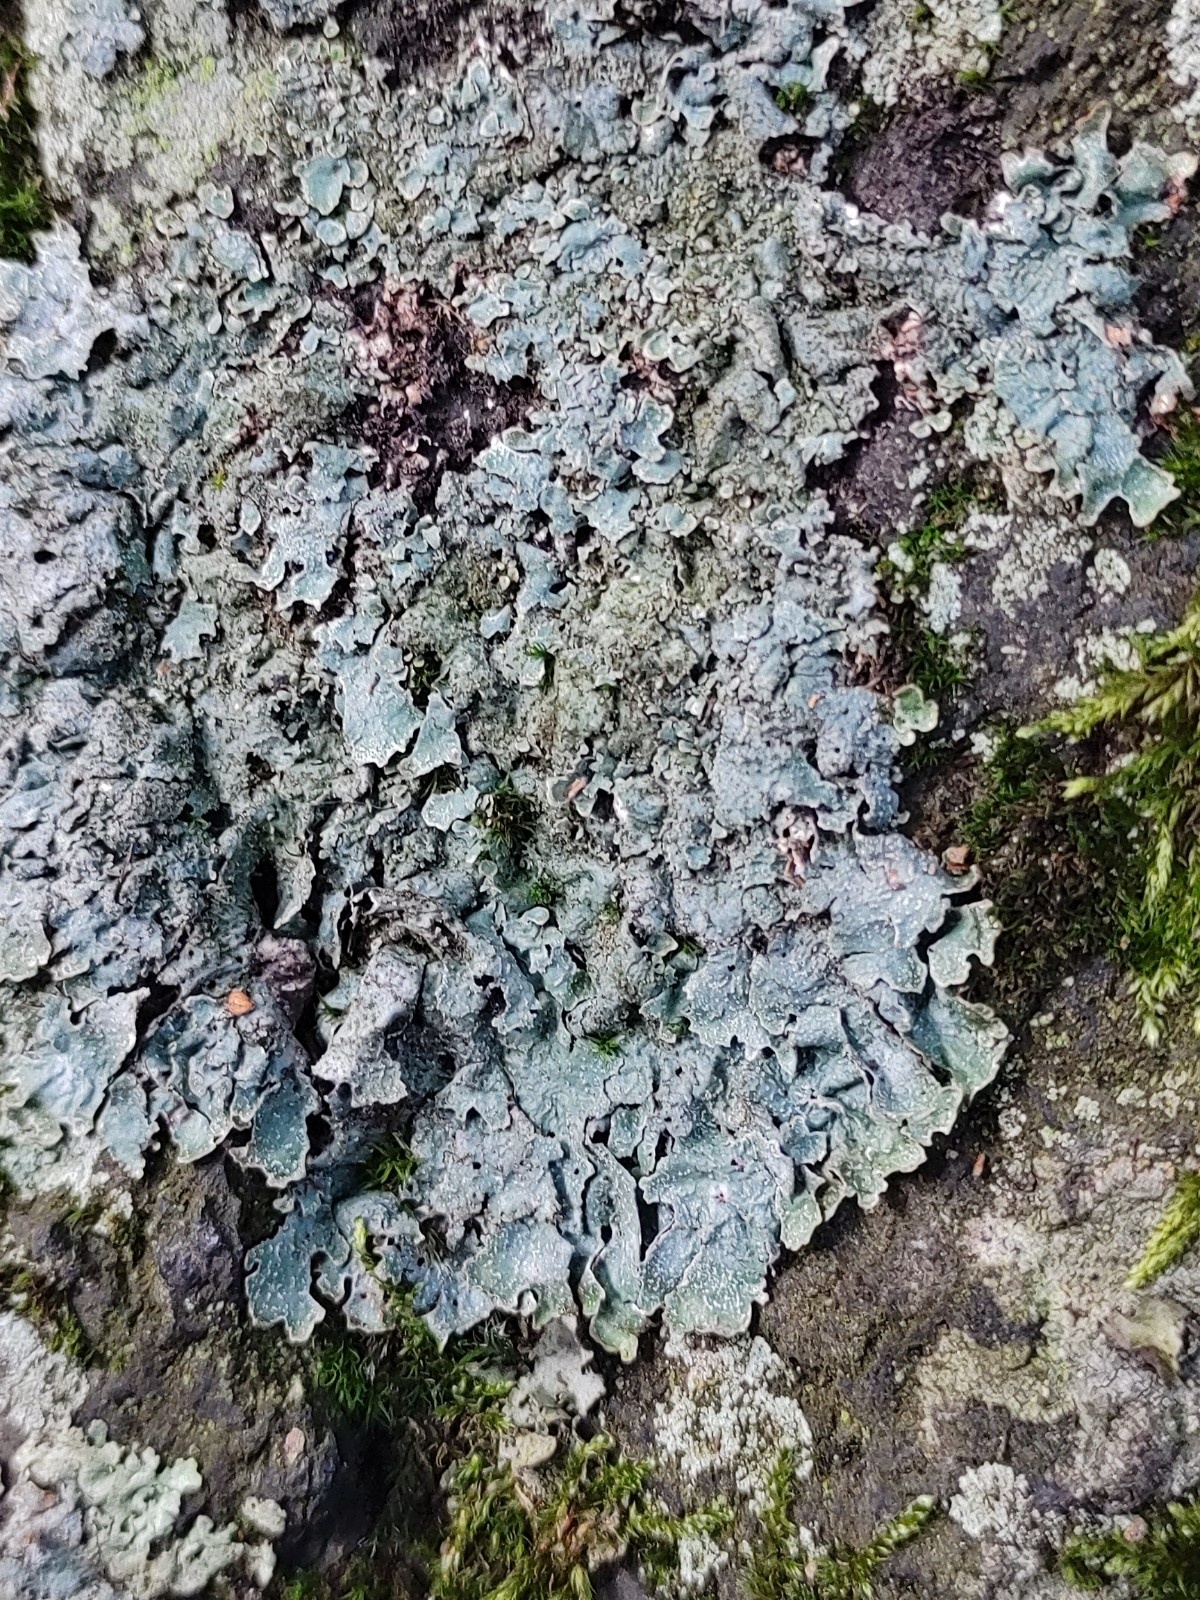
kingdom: Fungi
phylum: Ascomycota
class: Lecanoromycetes
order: Lecanorales
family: Parmeliaceae
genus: Parmelia
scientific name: Parmelia sulcata
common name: Netted shield lichen
